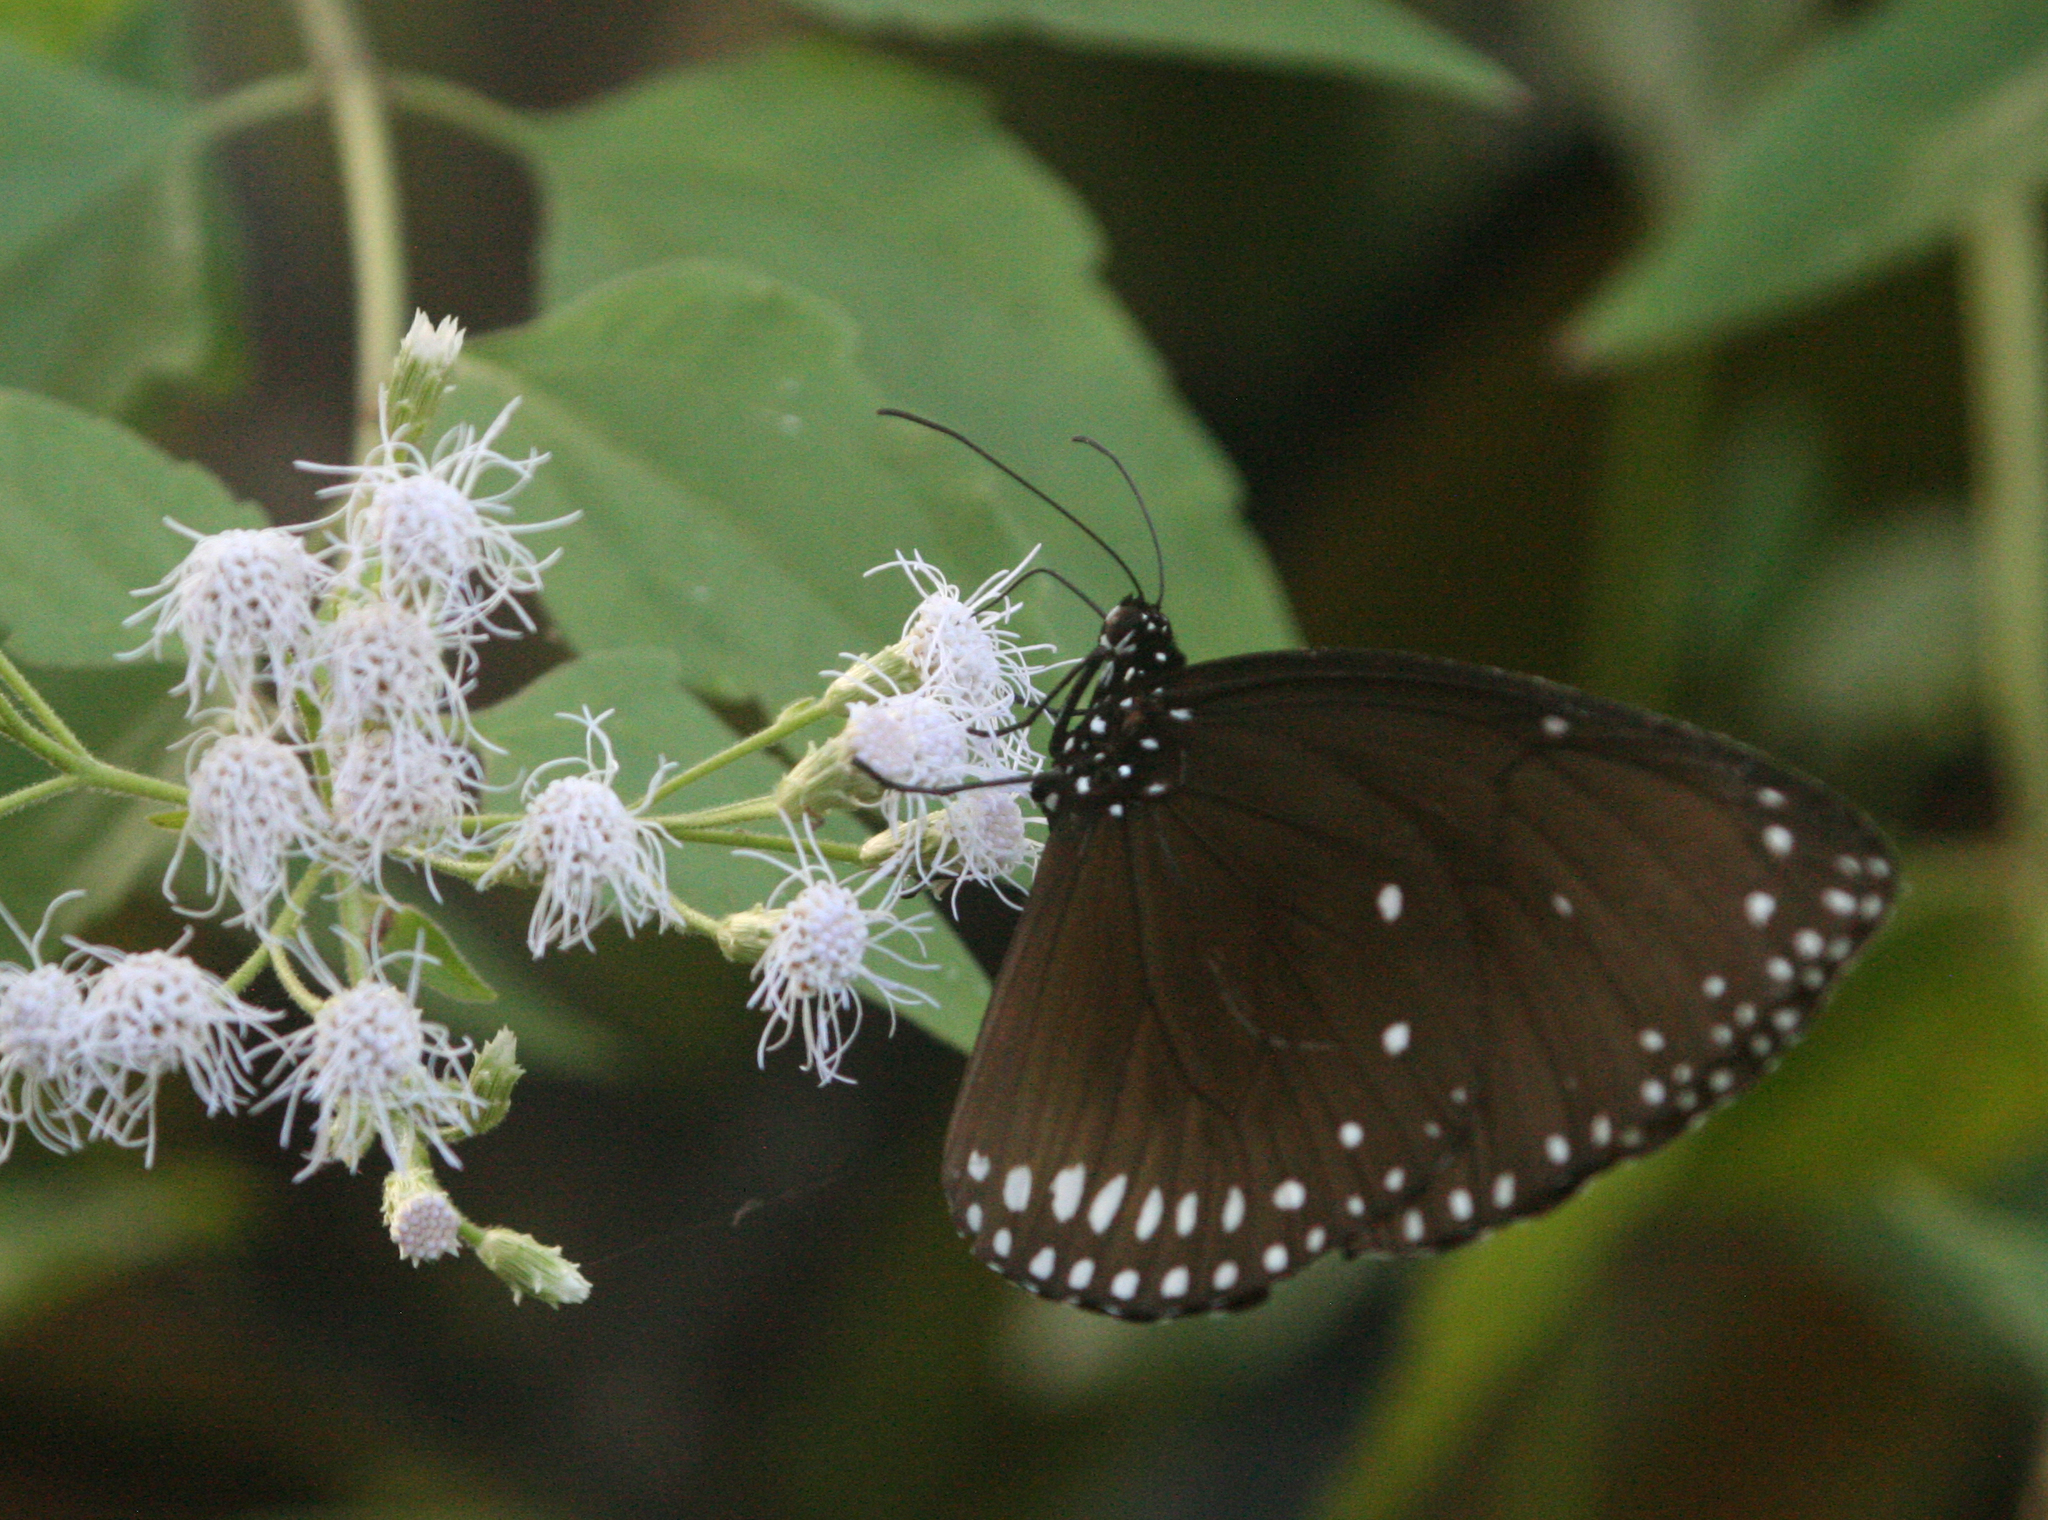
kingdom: Animalia
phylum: Arthropoda
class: Insecta
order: Lepidoptera
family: Nymphalidae
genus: Euploea
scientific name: Euploea klugii
